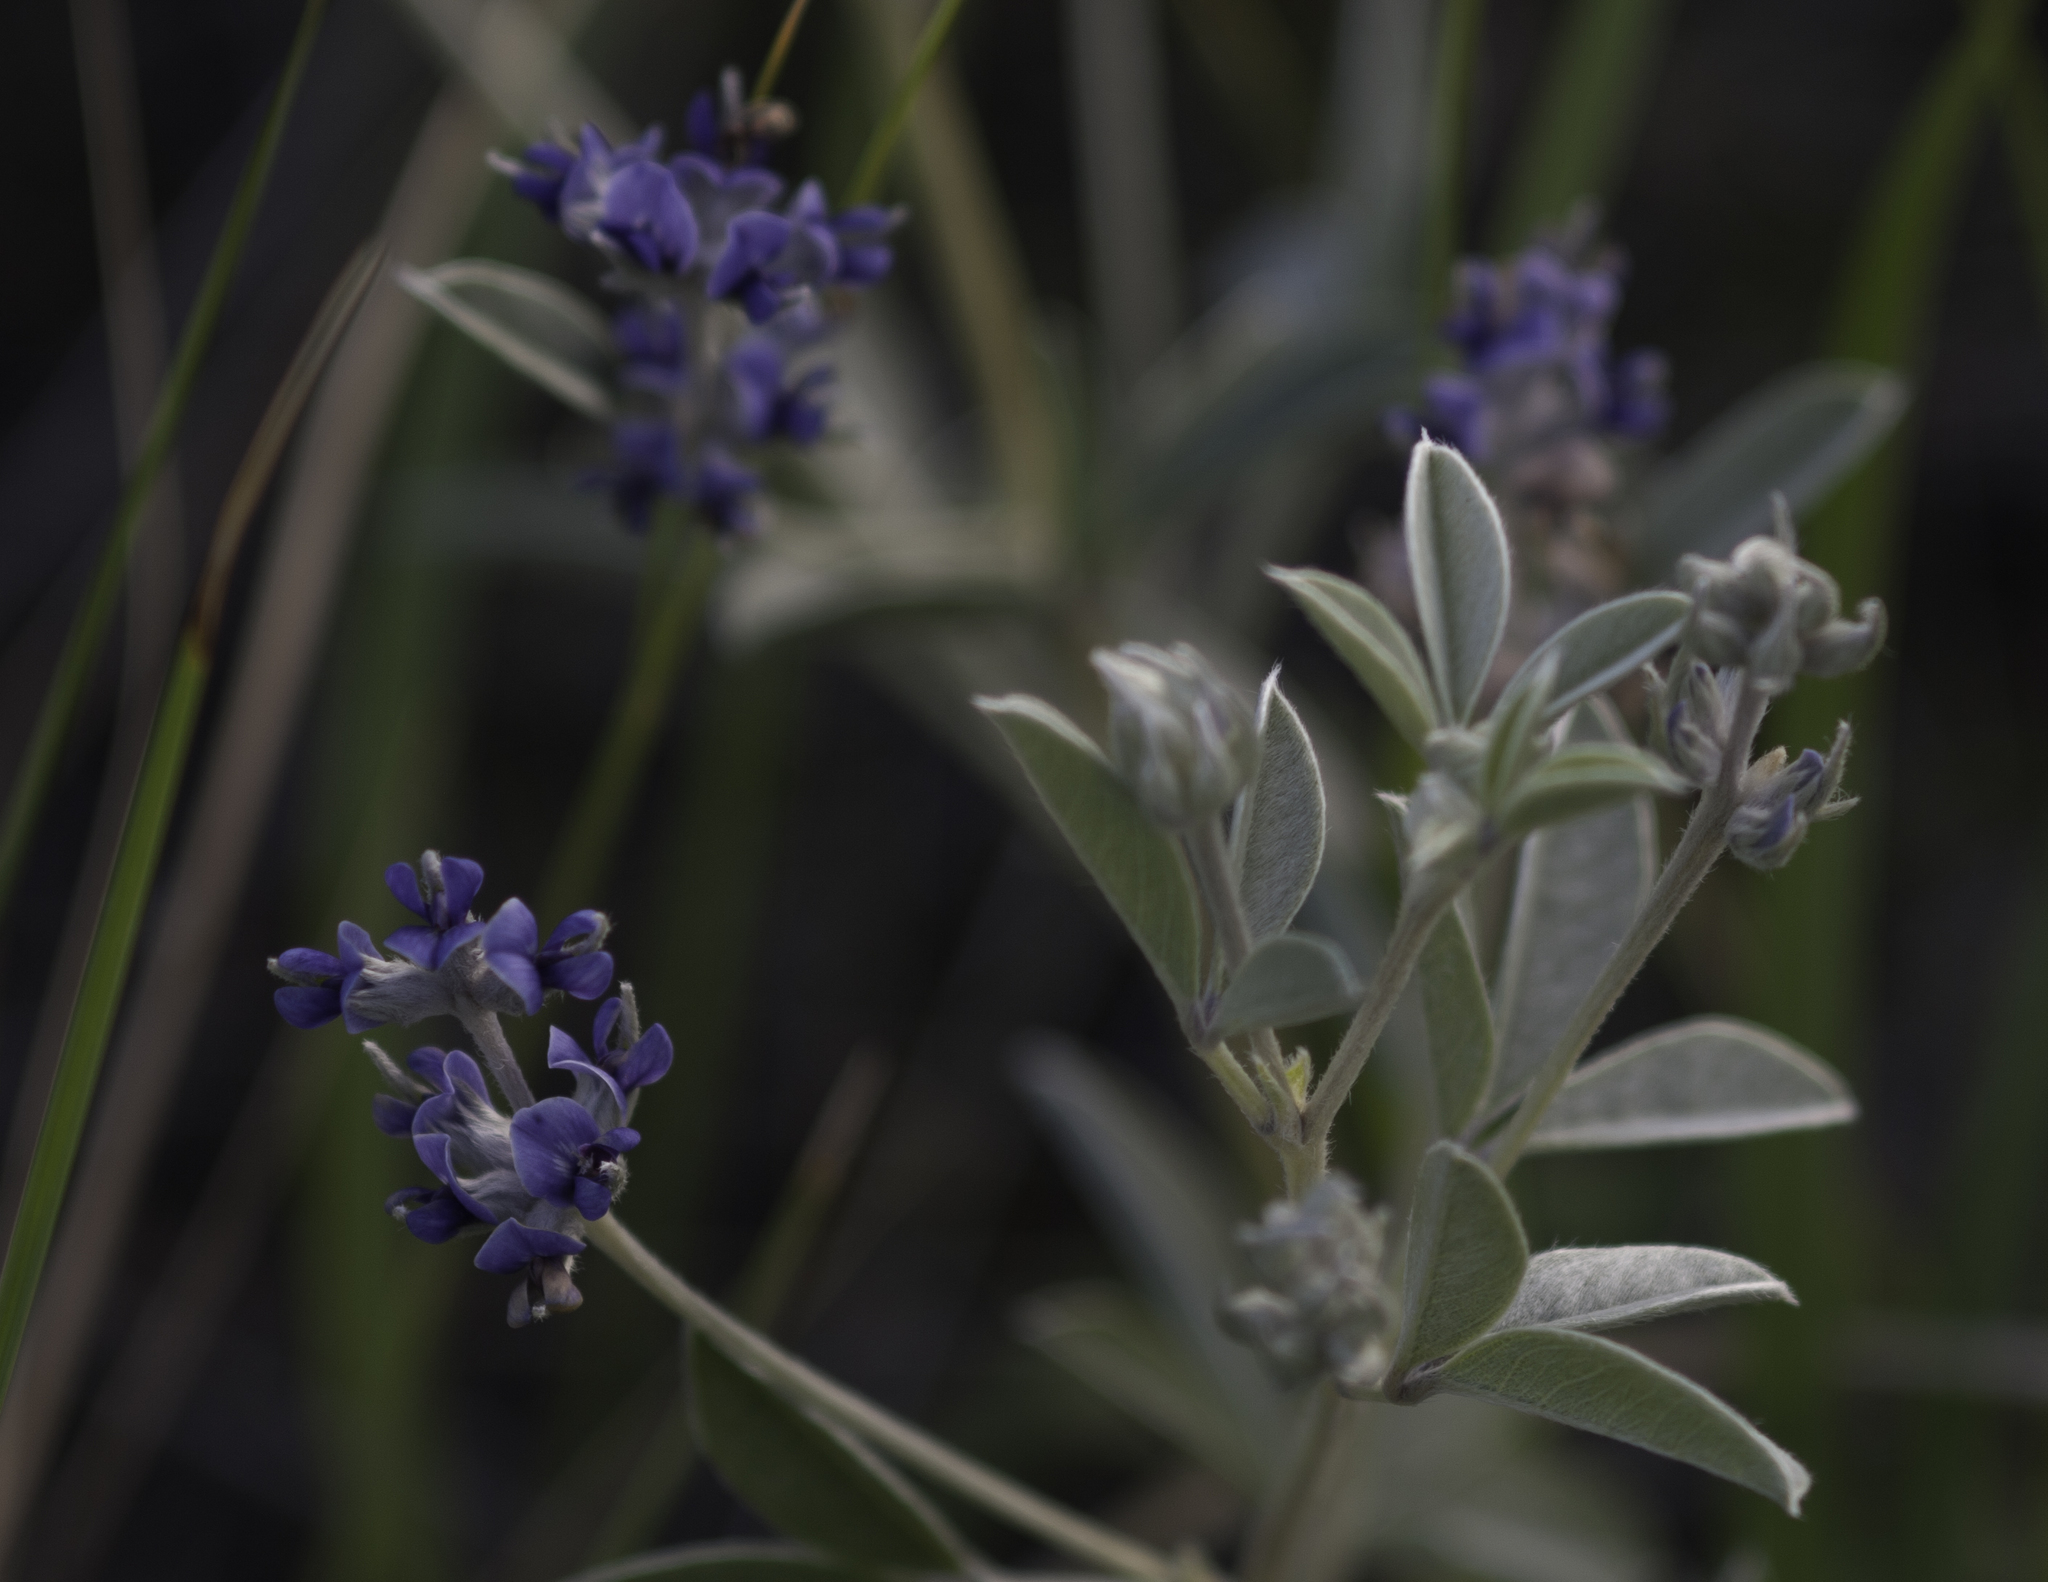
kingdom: Plantae
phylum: Tracheophyta
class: Magnoliopsida
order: Fabales
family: Fabaceae
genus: Pediomelum
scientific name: Pediomelum argophyllum
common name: Silver-leaved indian breadroot
